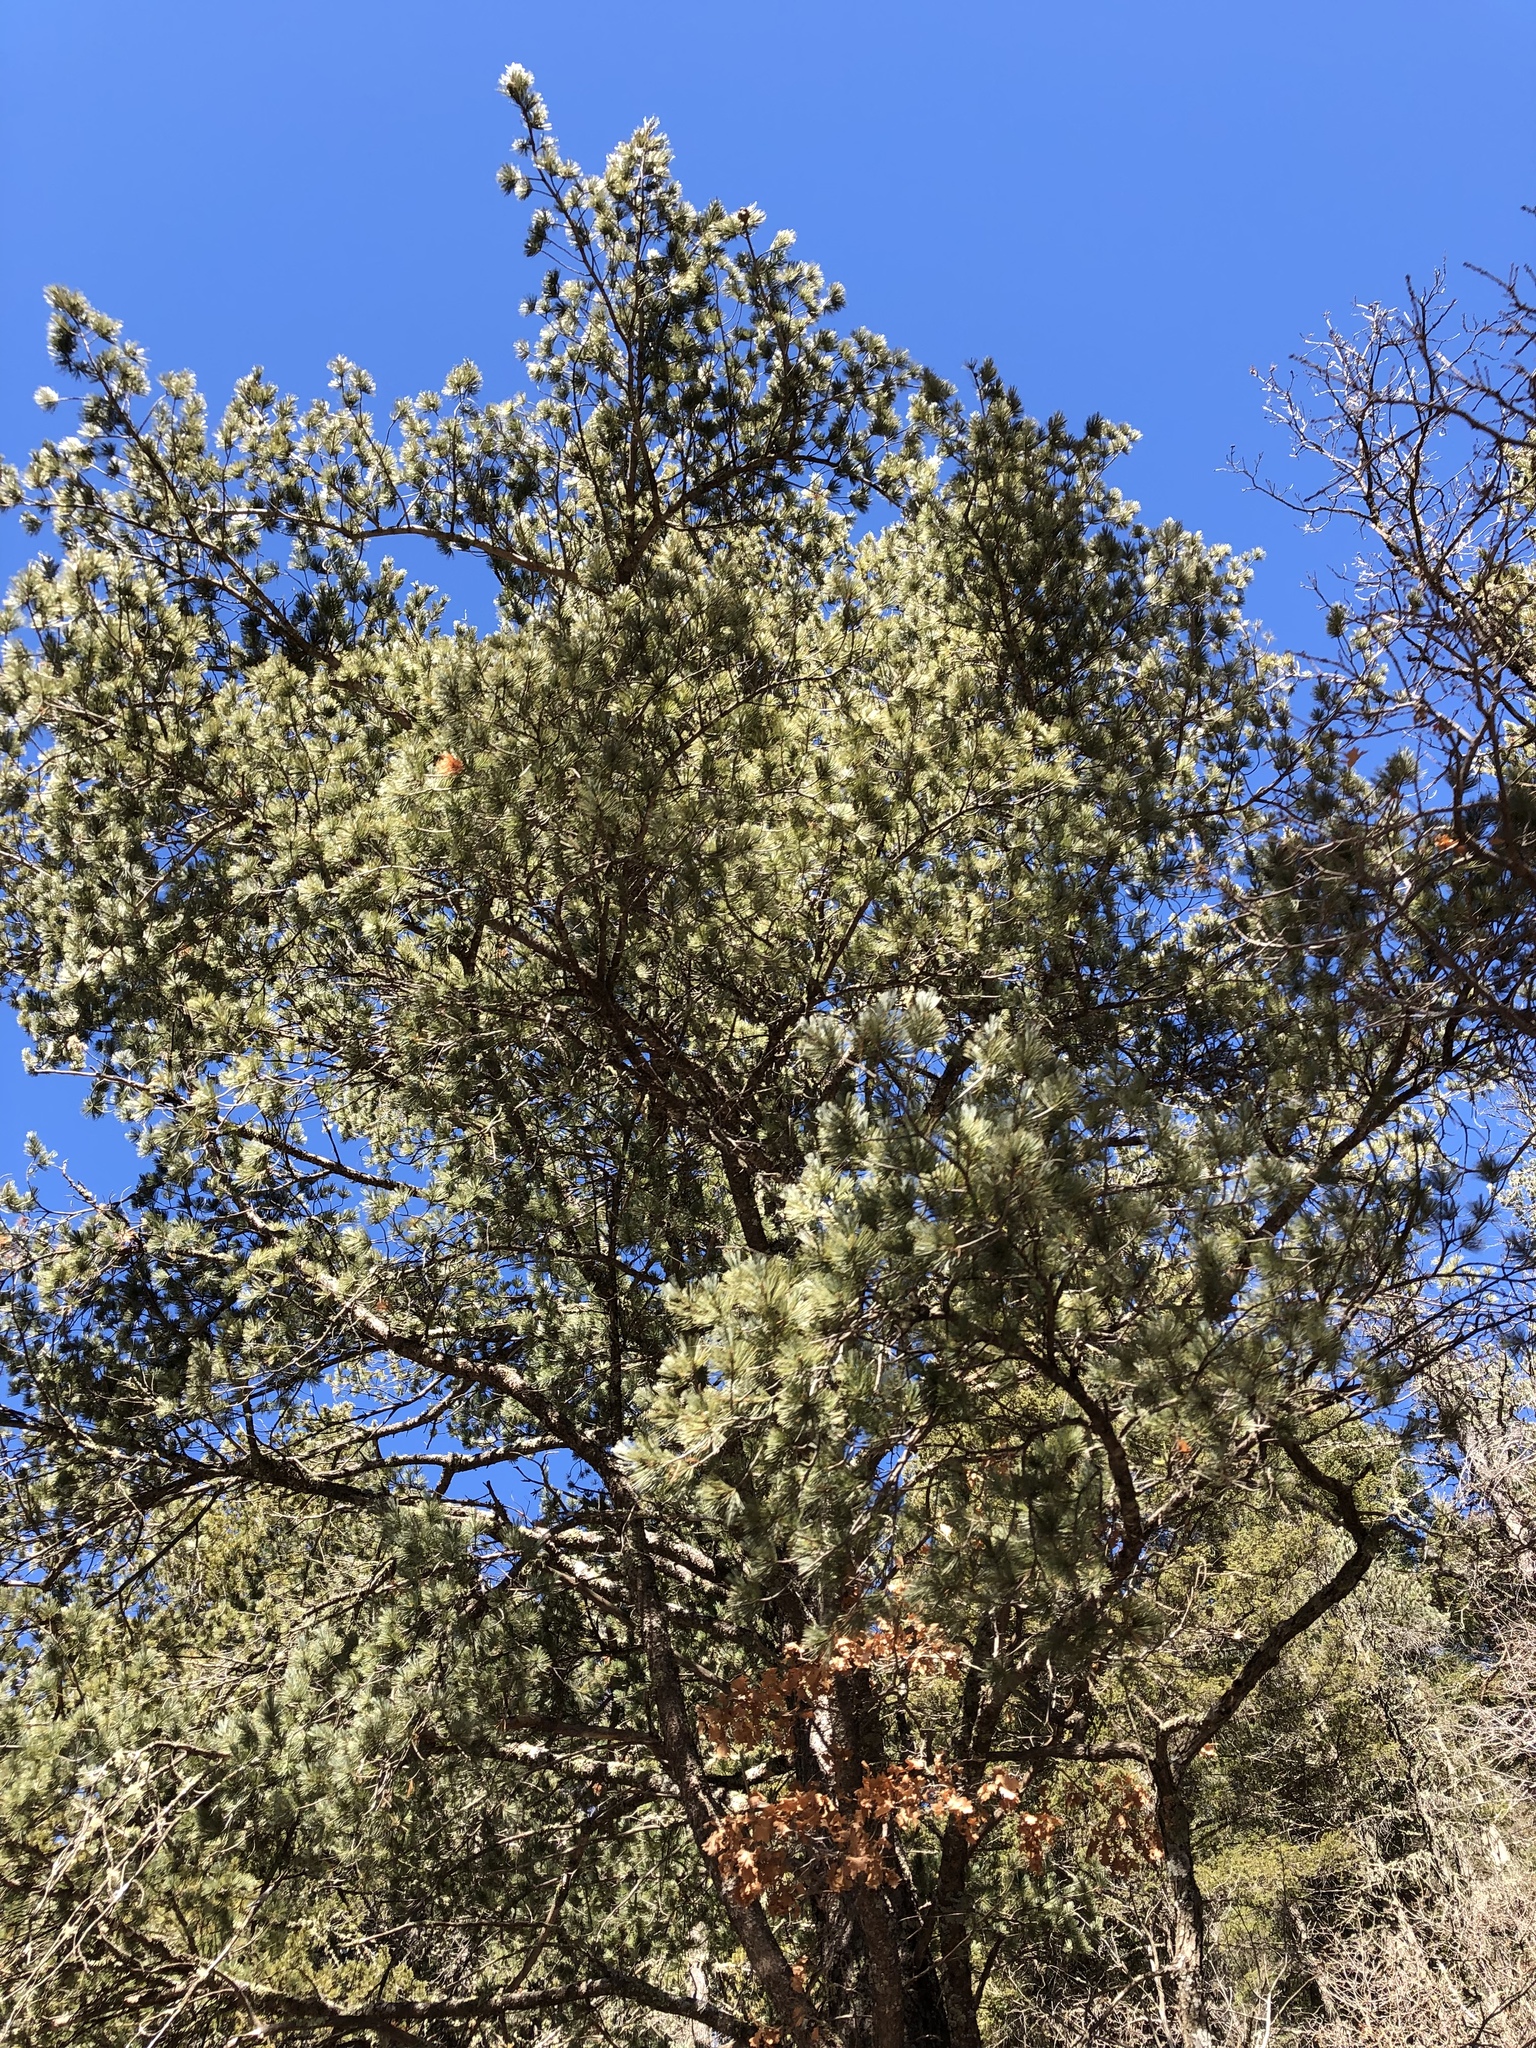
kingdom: Plantae
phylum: Tracheophyta
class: Pinopsida
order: Pinales
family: Pinaceae
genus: Pinus
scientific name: Pinus strobiformis
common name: Southwestern white pine
